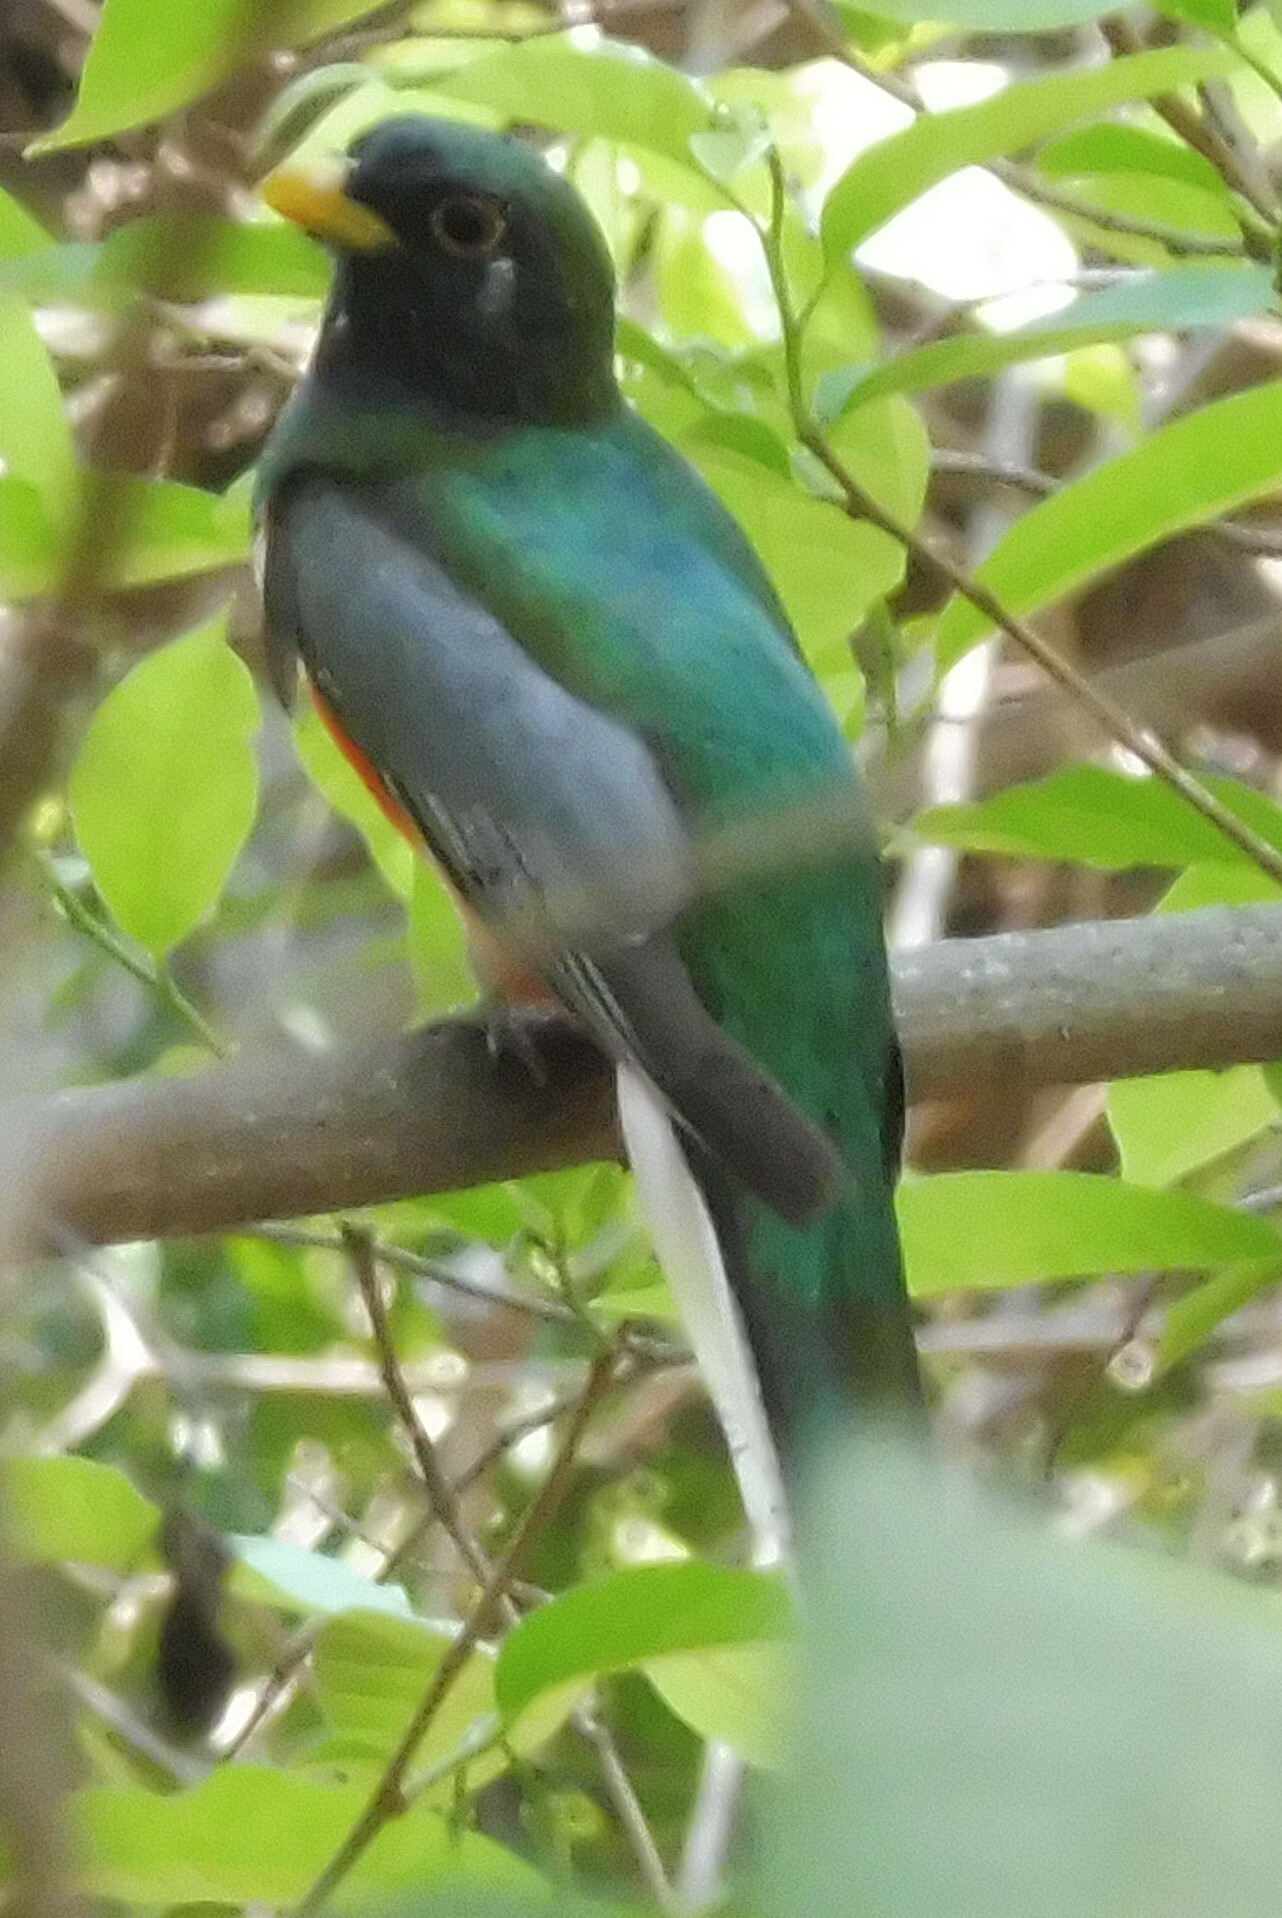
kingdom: Animalia
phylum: Chordata
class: Aves
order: Trogoniformes
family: Trogonidae
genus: Trogon
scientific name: Trogon elegans
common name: Elegant trogon
